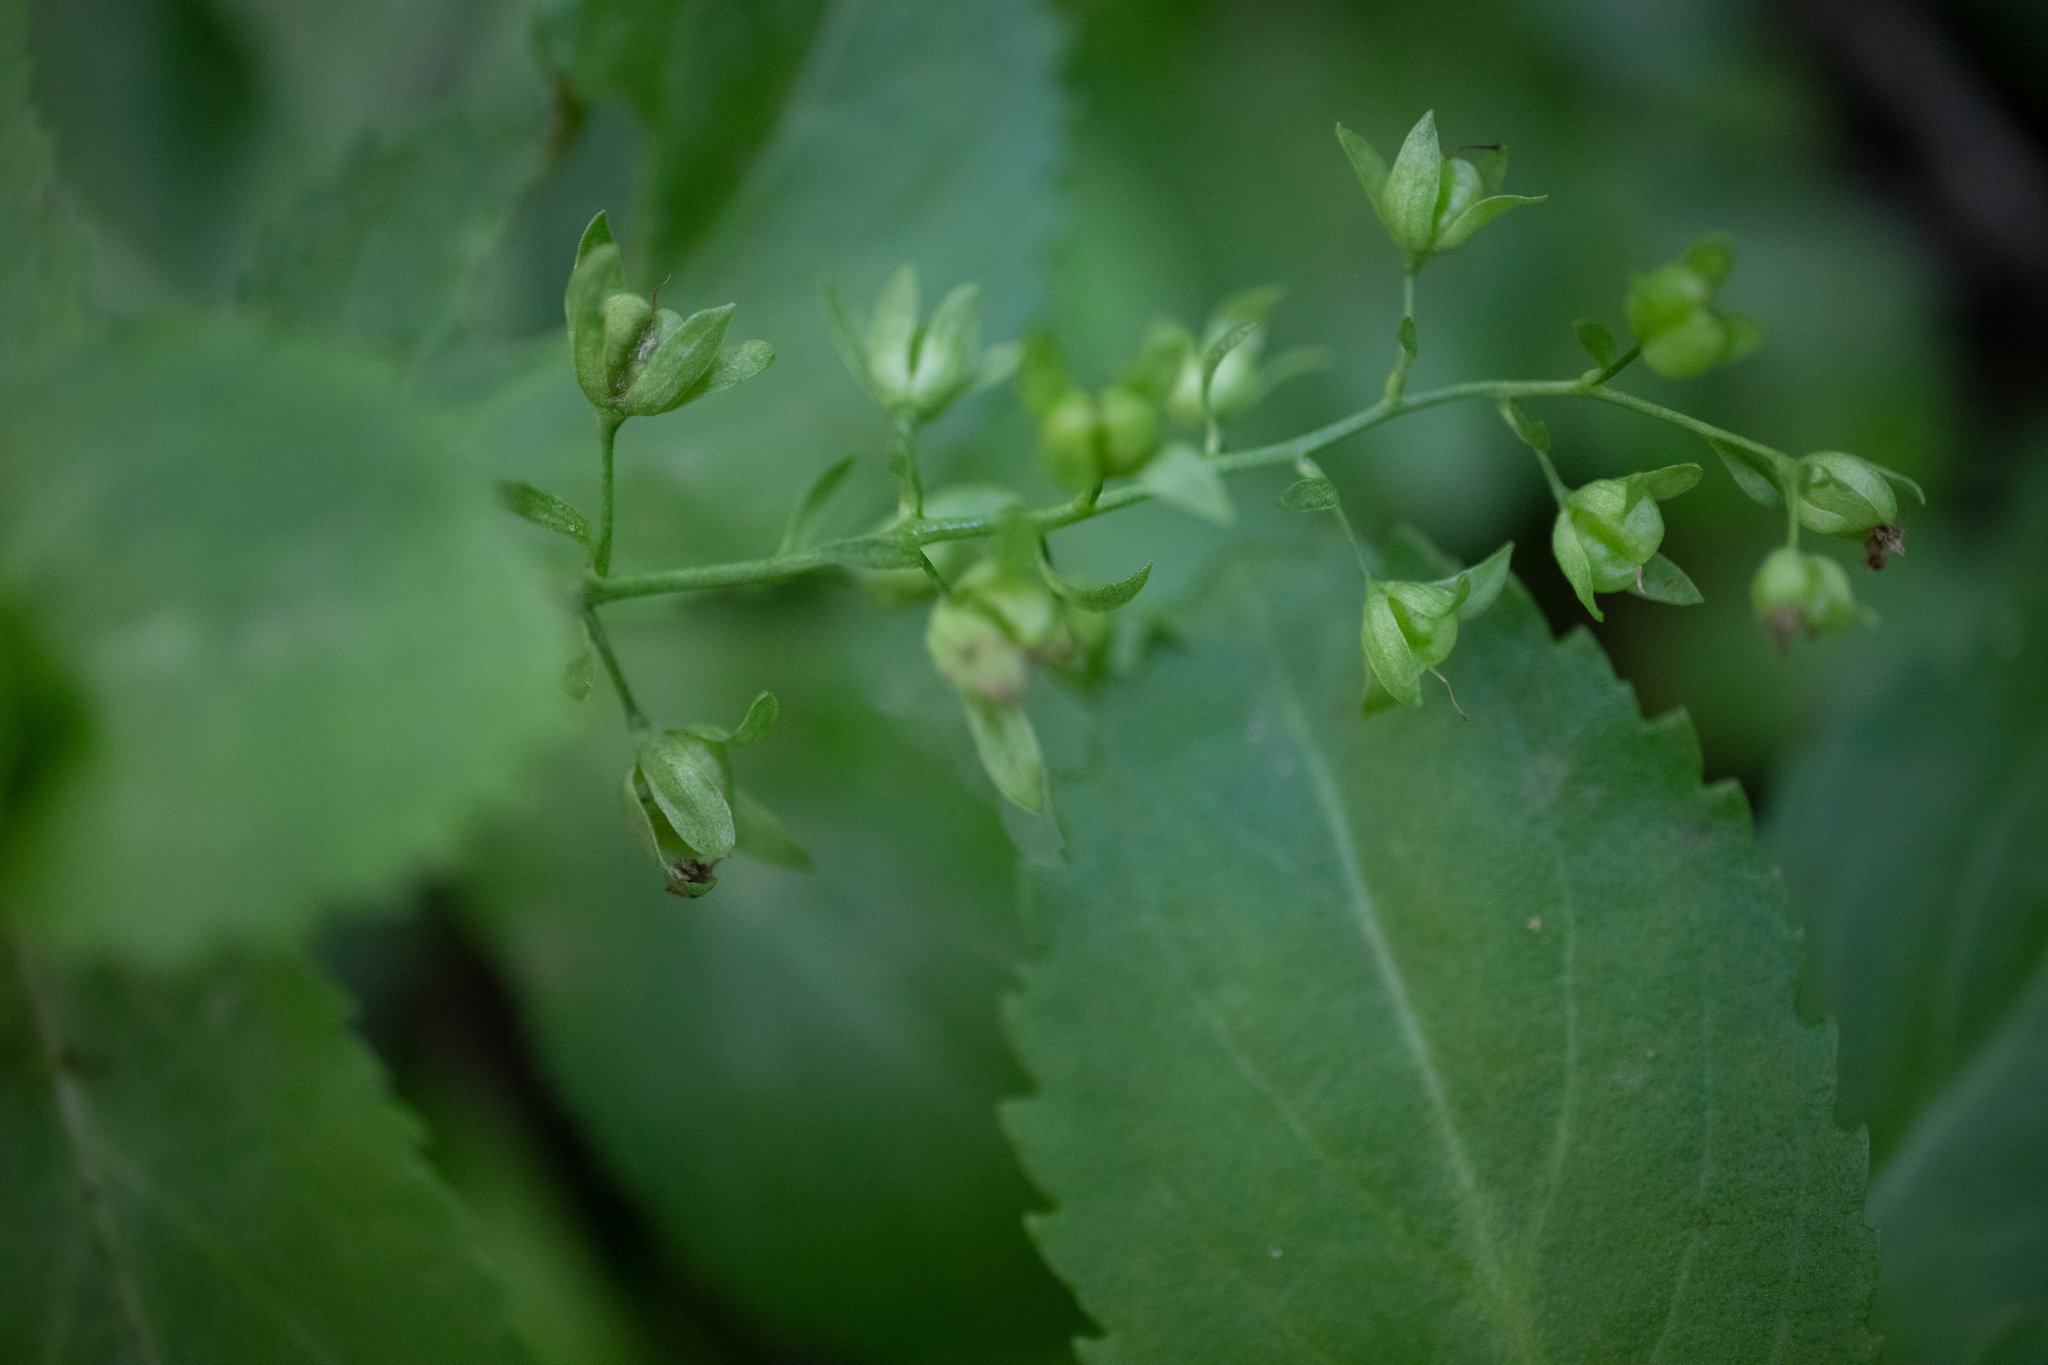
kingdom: Plantae
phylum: Tracheophyta
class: Magnoliopsida
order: Lamiales
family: Plantaginaceae
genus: Veronica
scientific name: Veronica beccabunga
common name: Brooklime
